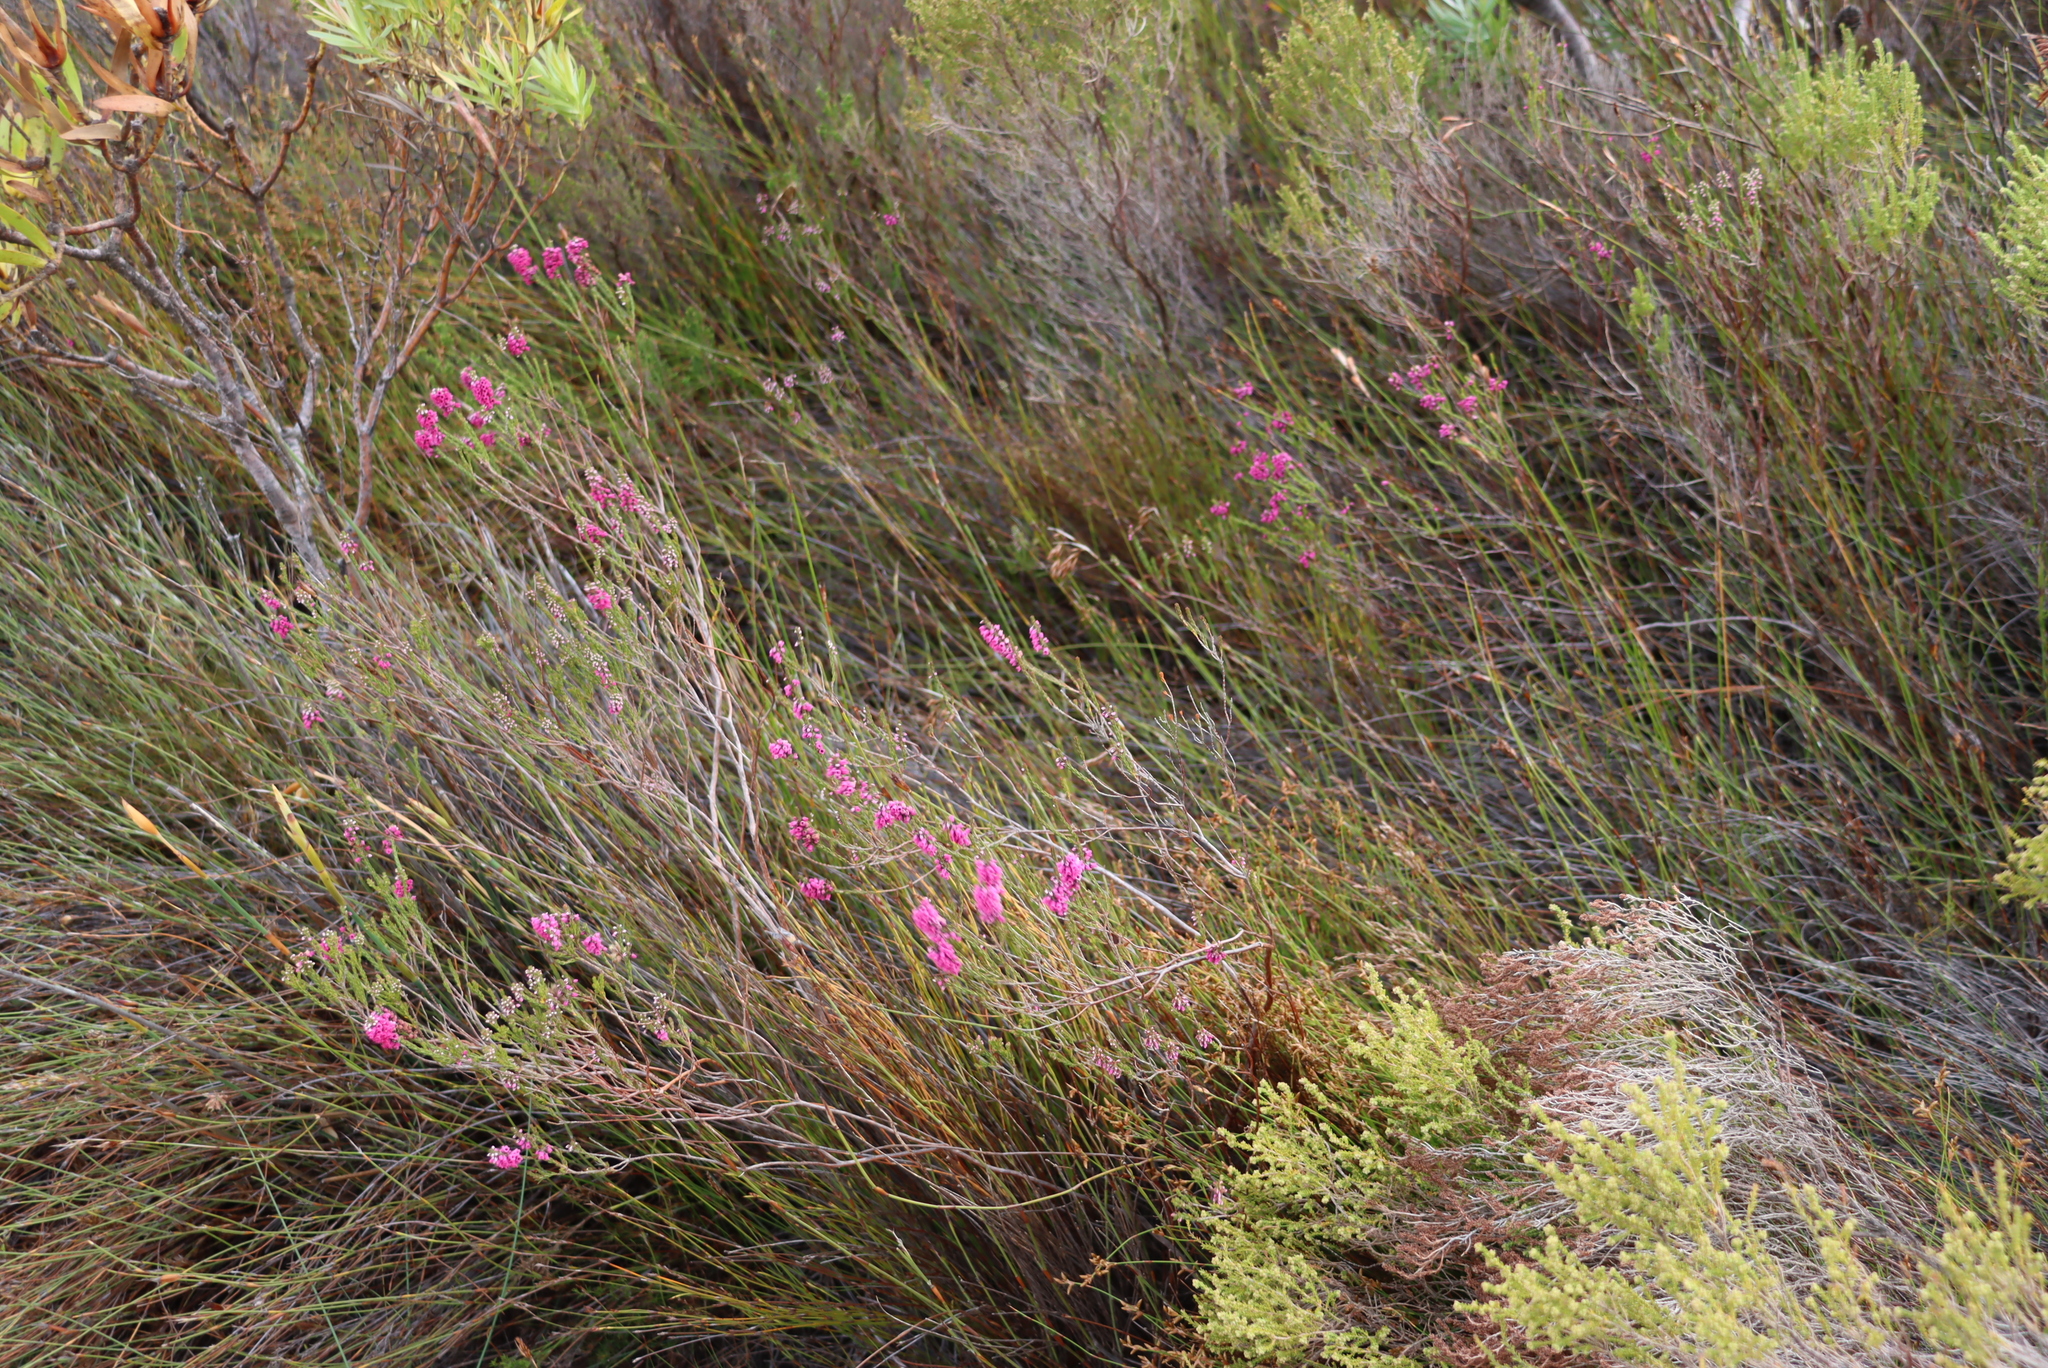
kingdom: Plantae
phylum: Tracheophyta
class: Magnoliopsida
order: Ericales
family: Ericaceae
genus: Erica
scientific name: Erica pulchella
